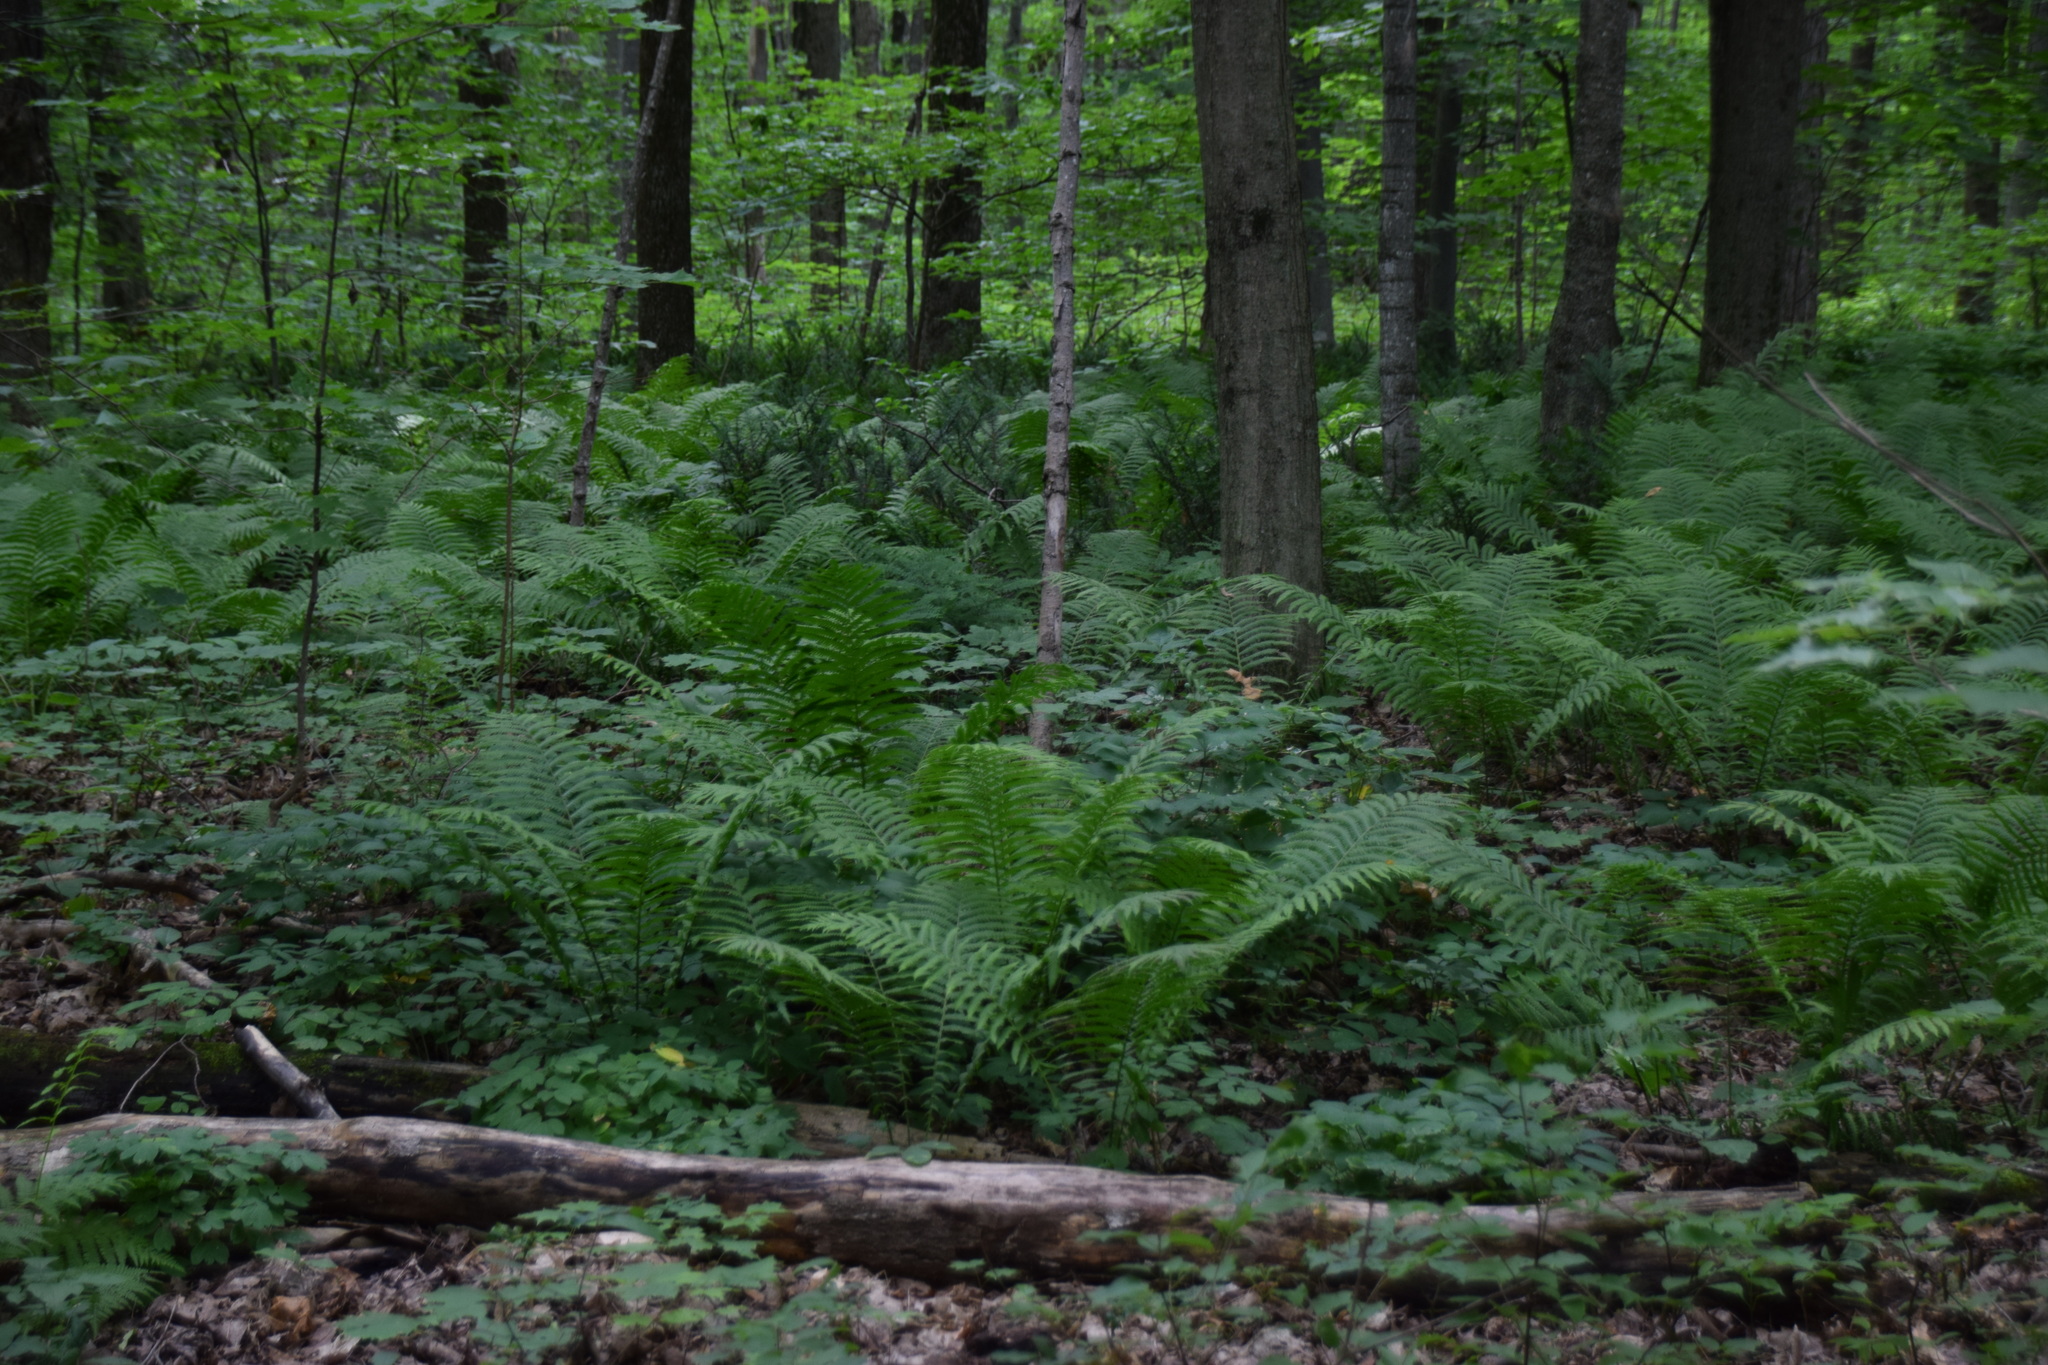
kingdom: Plantae
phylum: Tracheophyta
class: Polypodiopsida
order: Polypodiales
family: Onocleaceae
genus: Matteuccia
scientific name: Matteuccia struthiopteris
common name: Ostrich fern
